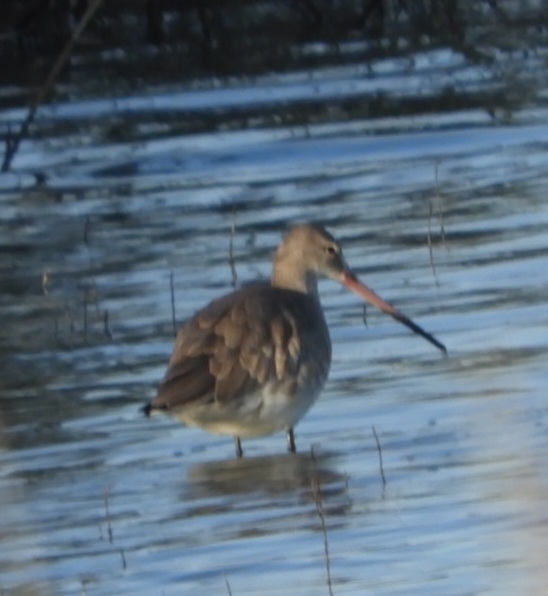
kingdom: Animalia
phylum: Chordata
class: Aves
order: Charadriiformes
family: Scolopacidae
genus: Limosa
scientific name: Limosa limosa
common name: Black-tailed godwit
